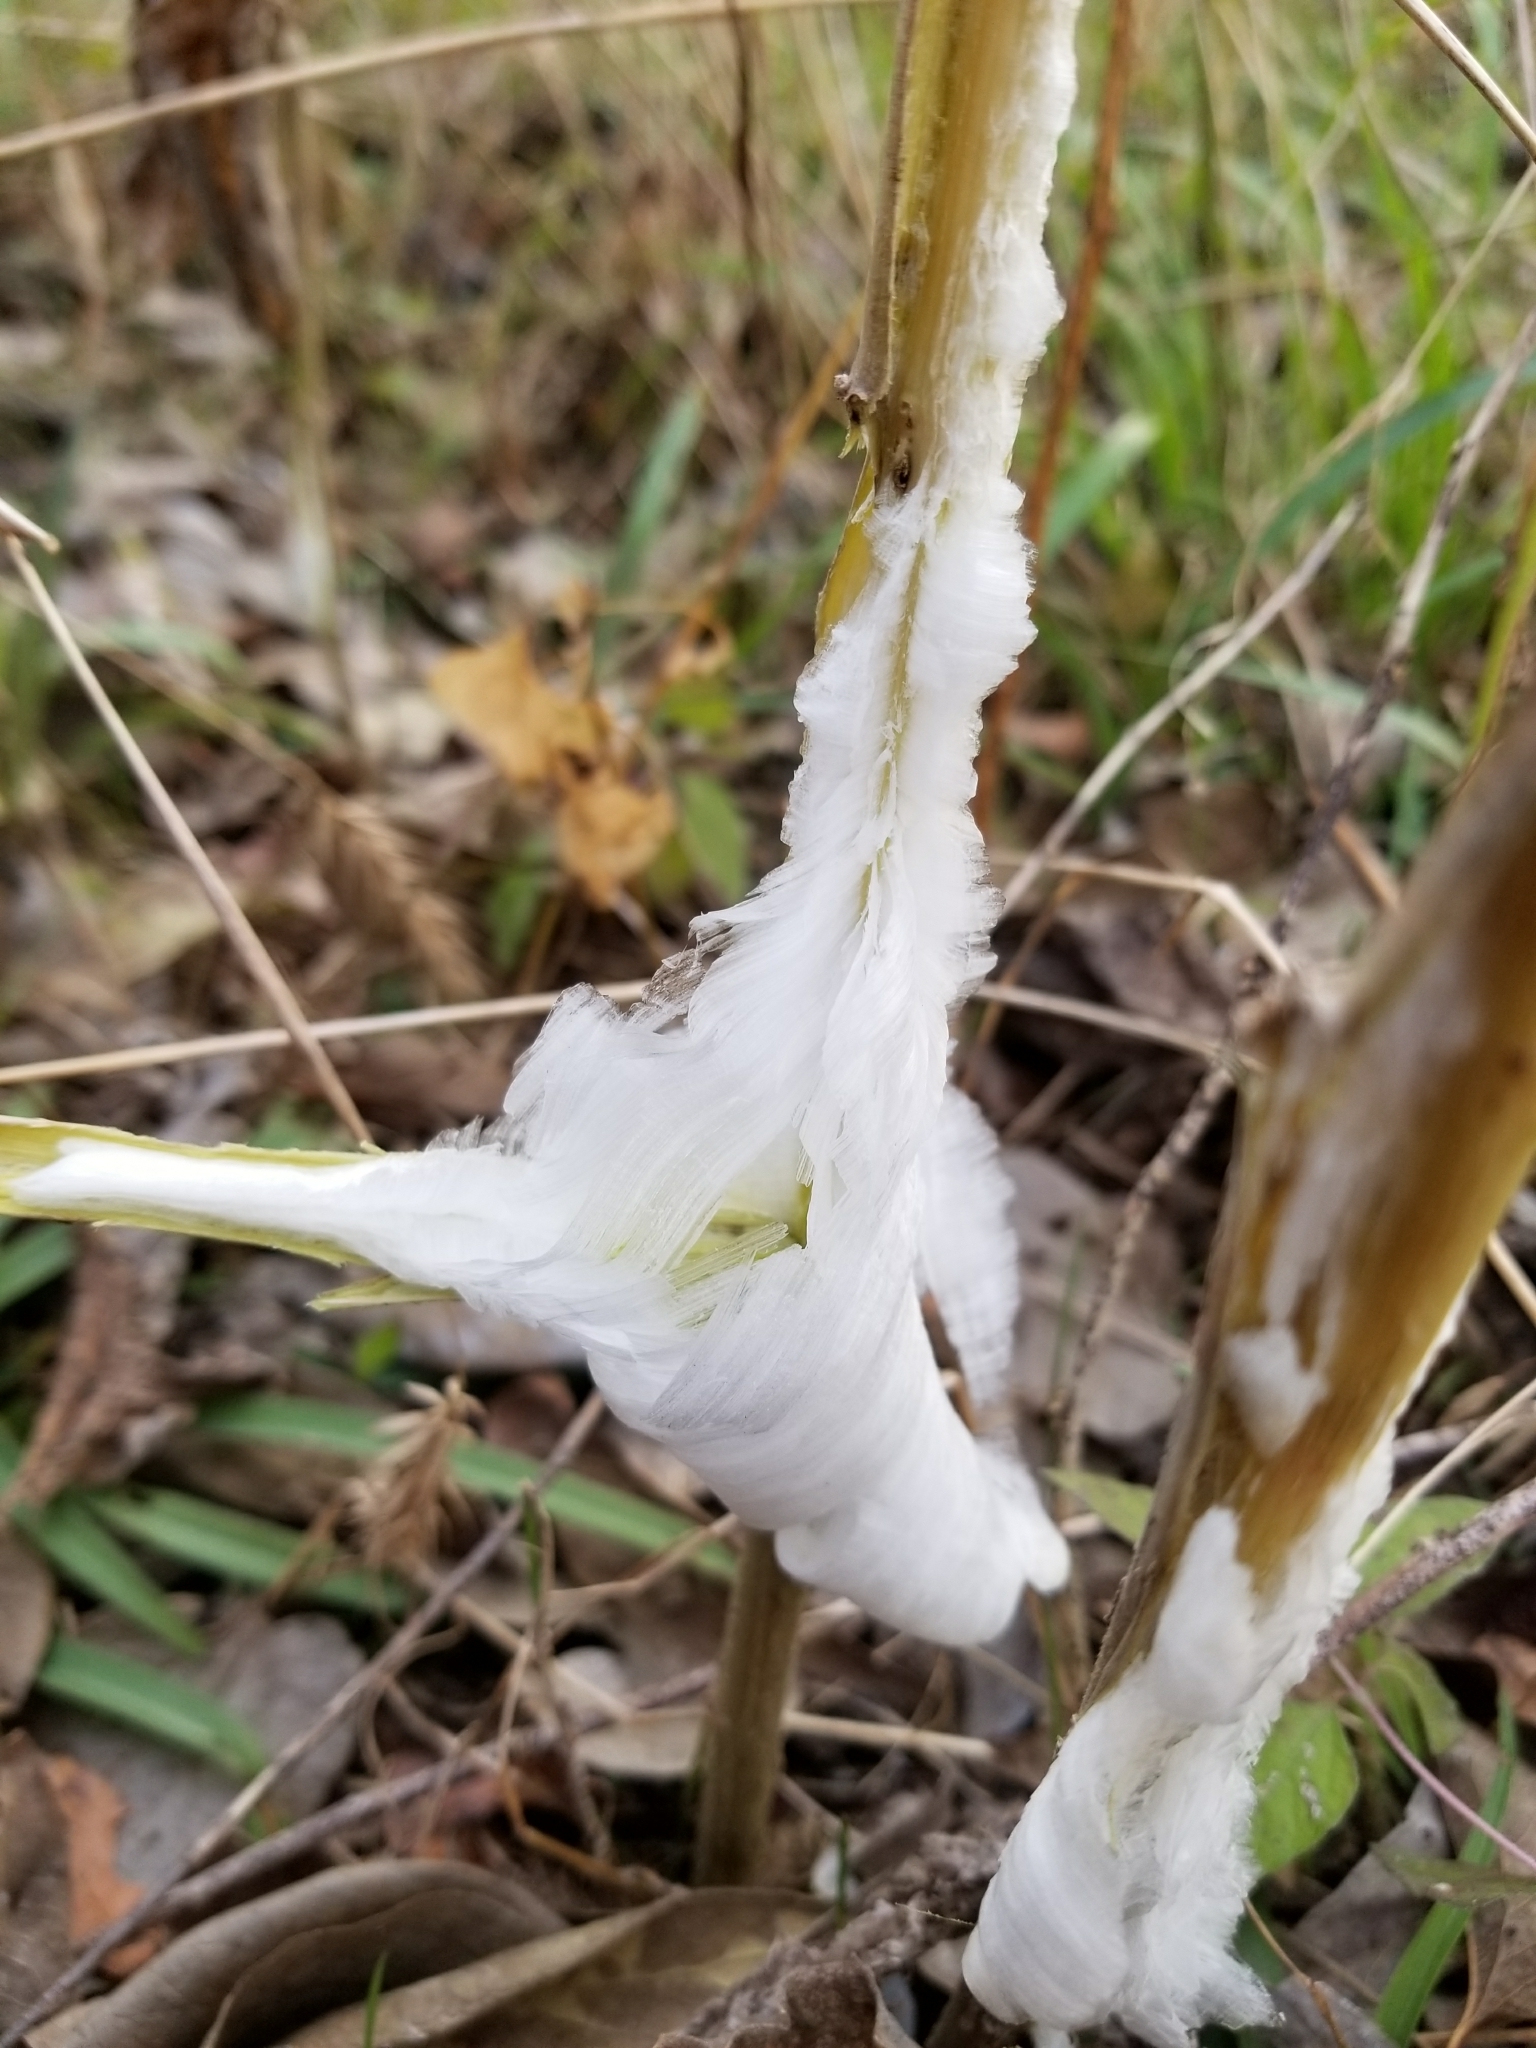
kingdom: Plantae
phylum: Tracheophyta
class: Magnoliopsida
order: Asterales
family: Asteraceae
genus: Verbesina
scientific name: Verbesina virginica
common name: Frostweed
